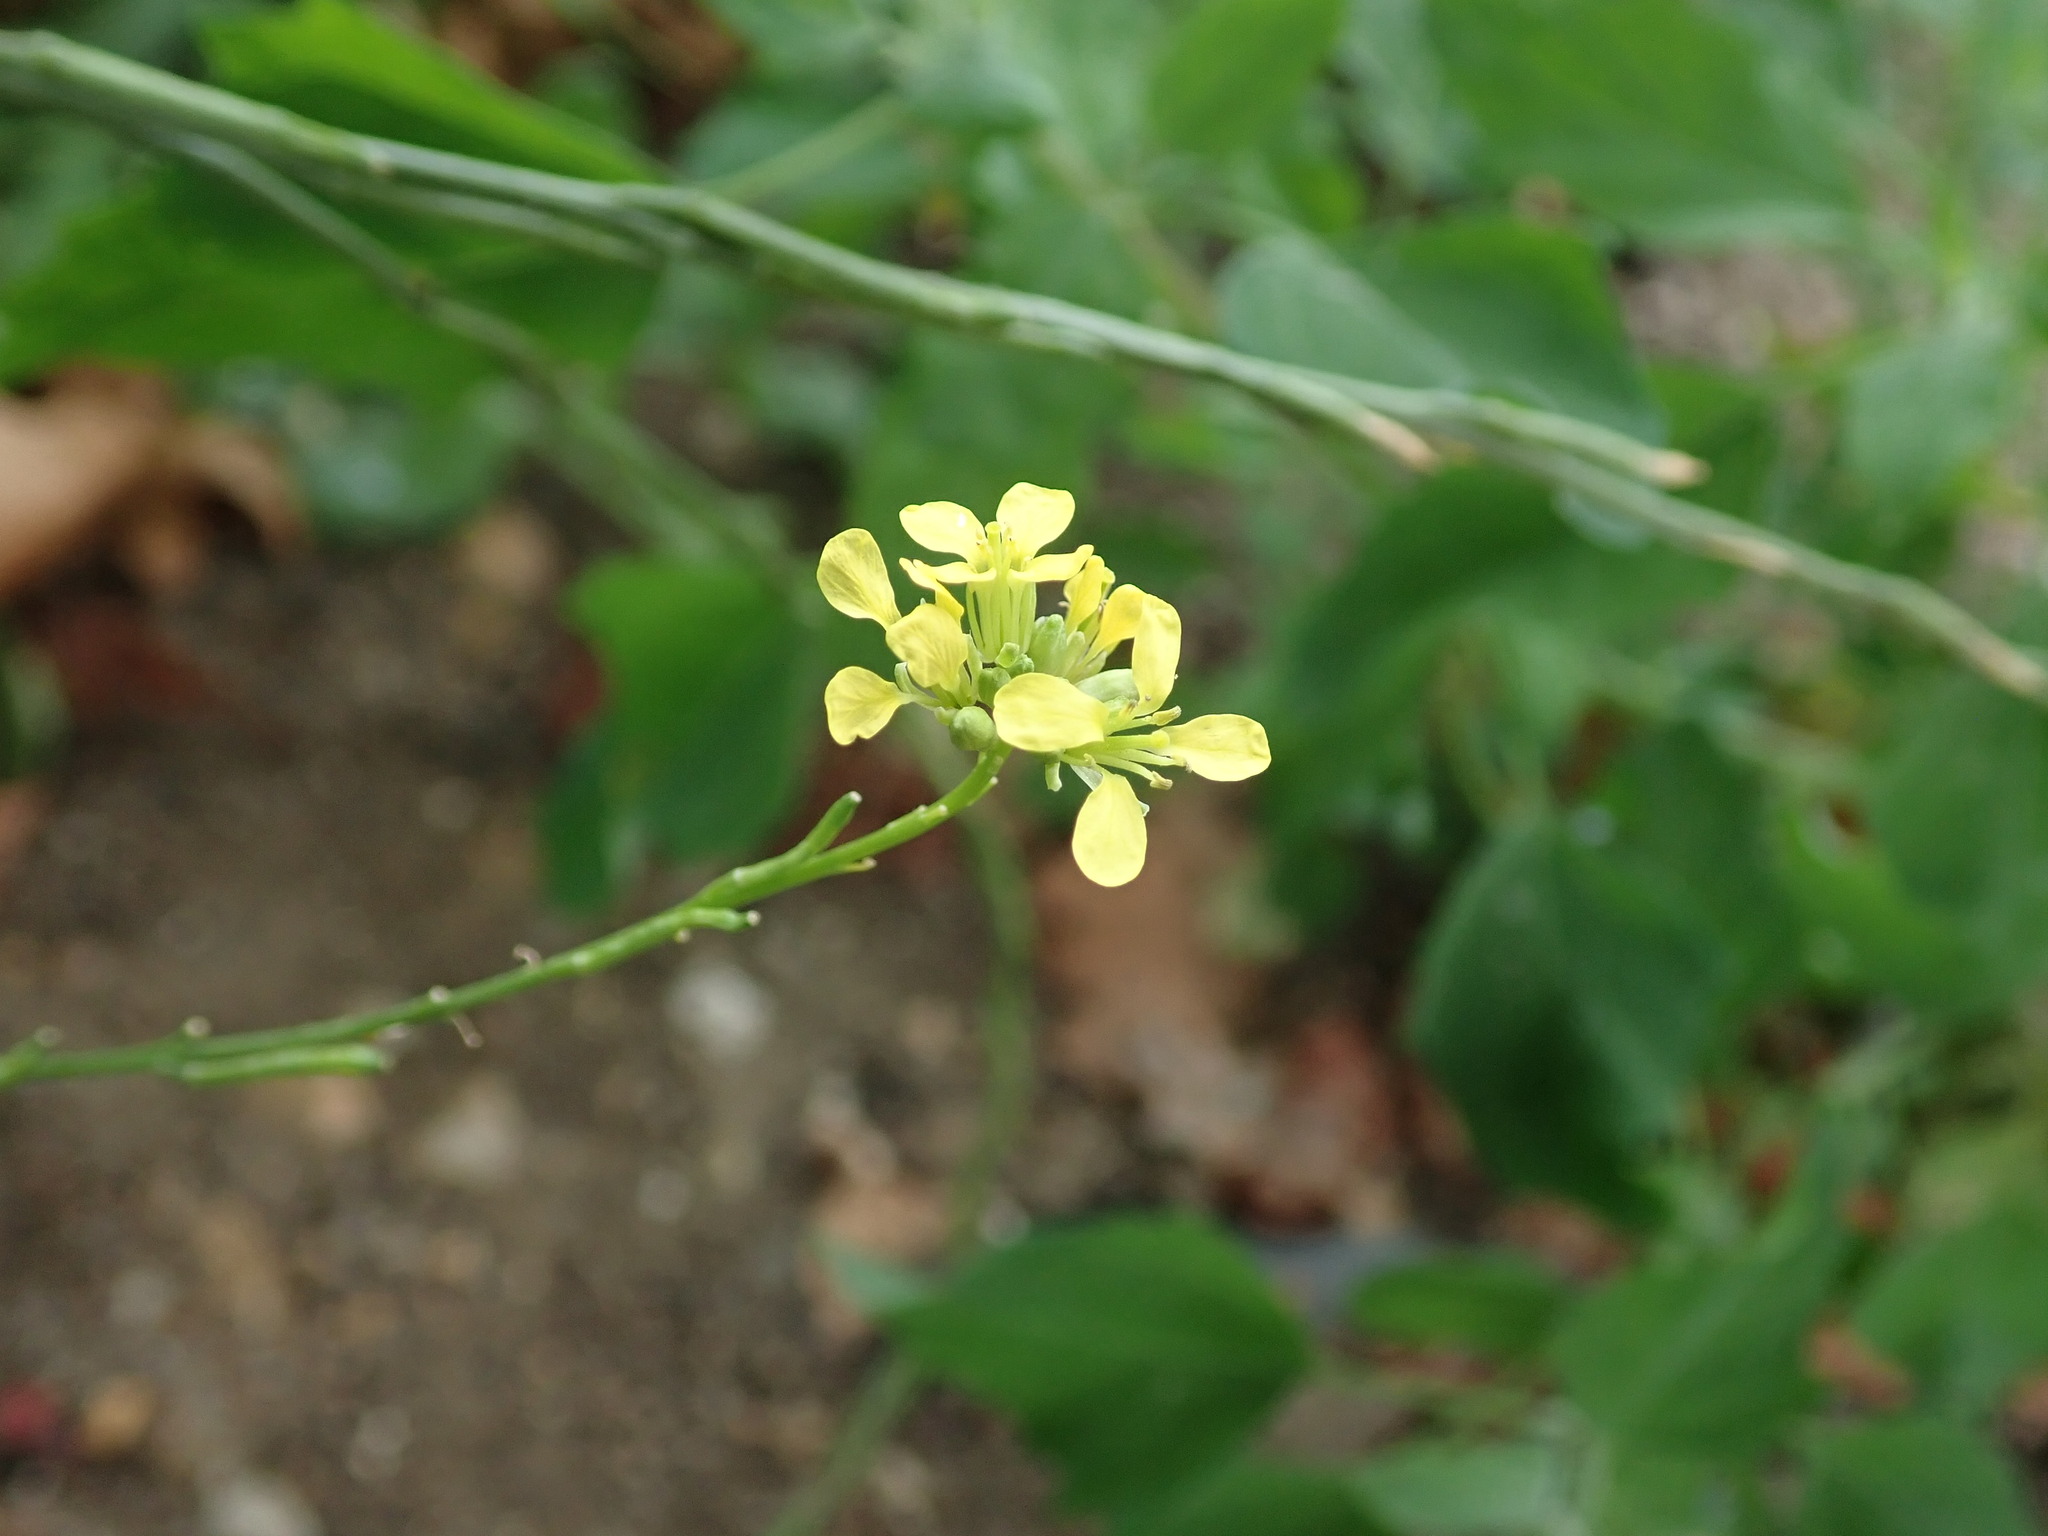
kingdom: Plantae
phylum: Tracheophyta
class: Magnoliopsida
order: Brassicales
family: Brassicaceae
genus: Hirschfeldia
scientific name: Hirschfeldia incana
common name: Hoary mustard
